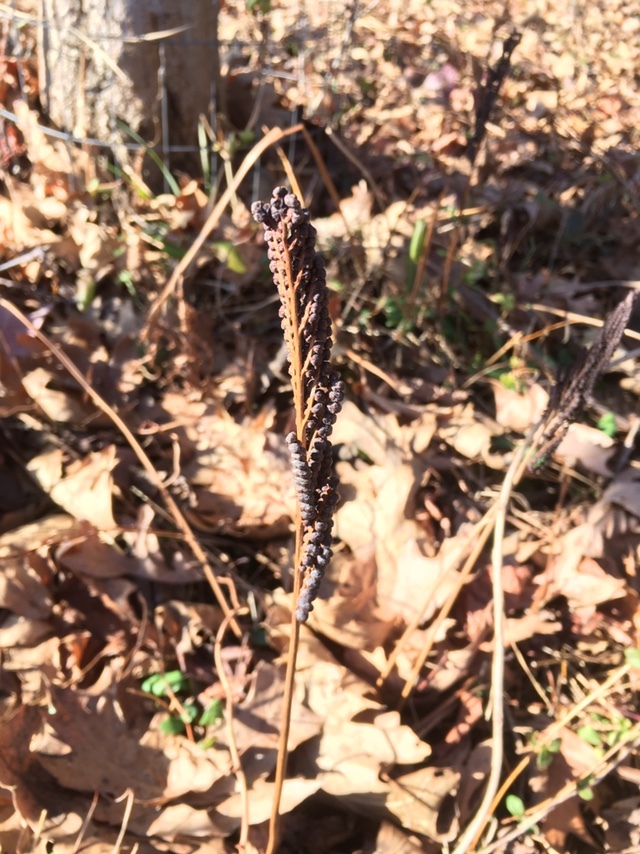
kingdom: Plantae
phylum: Tracheophyta
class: Polypodiopsida
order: Polypodiales
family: Onocleaceae
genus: Onoclea
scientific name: Onoclea sensibilis
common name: Sensitive fern
